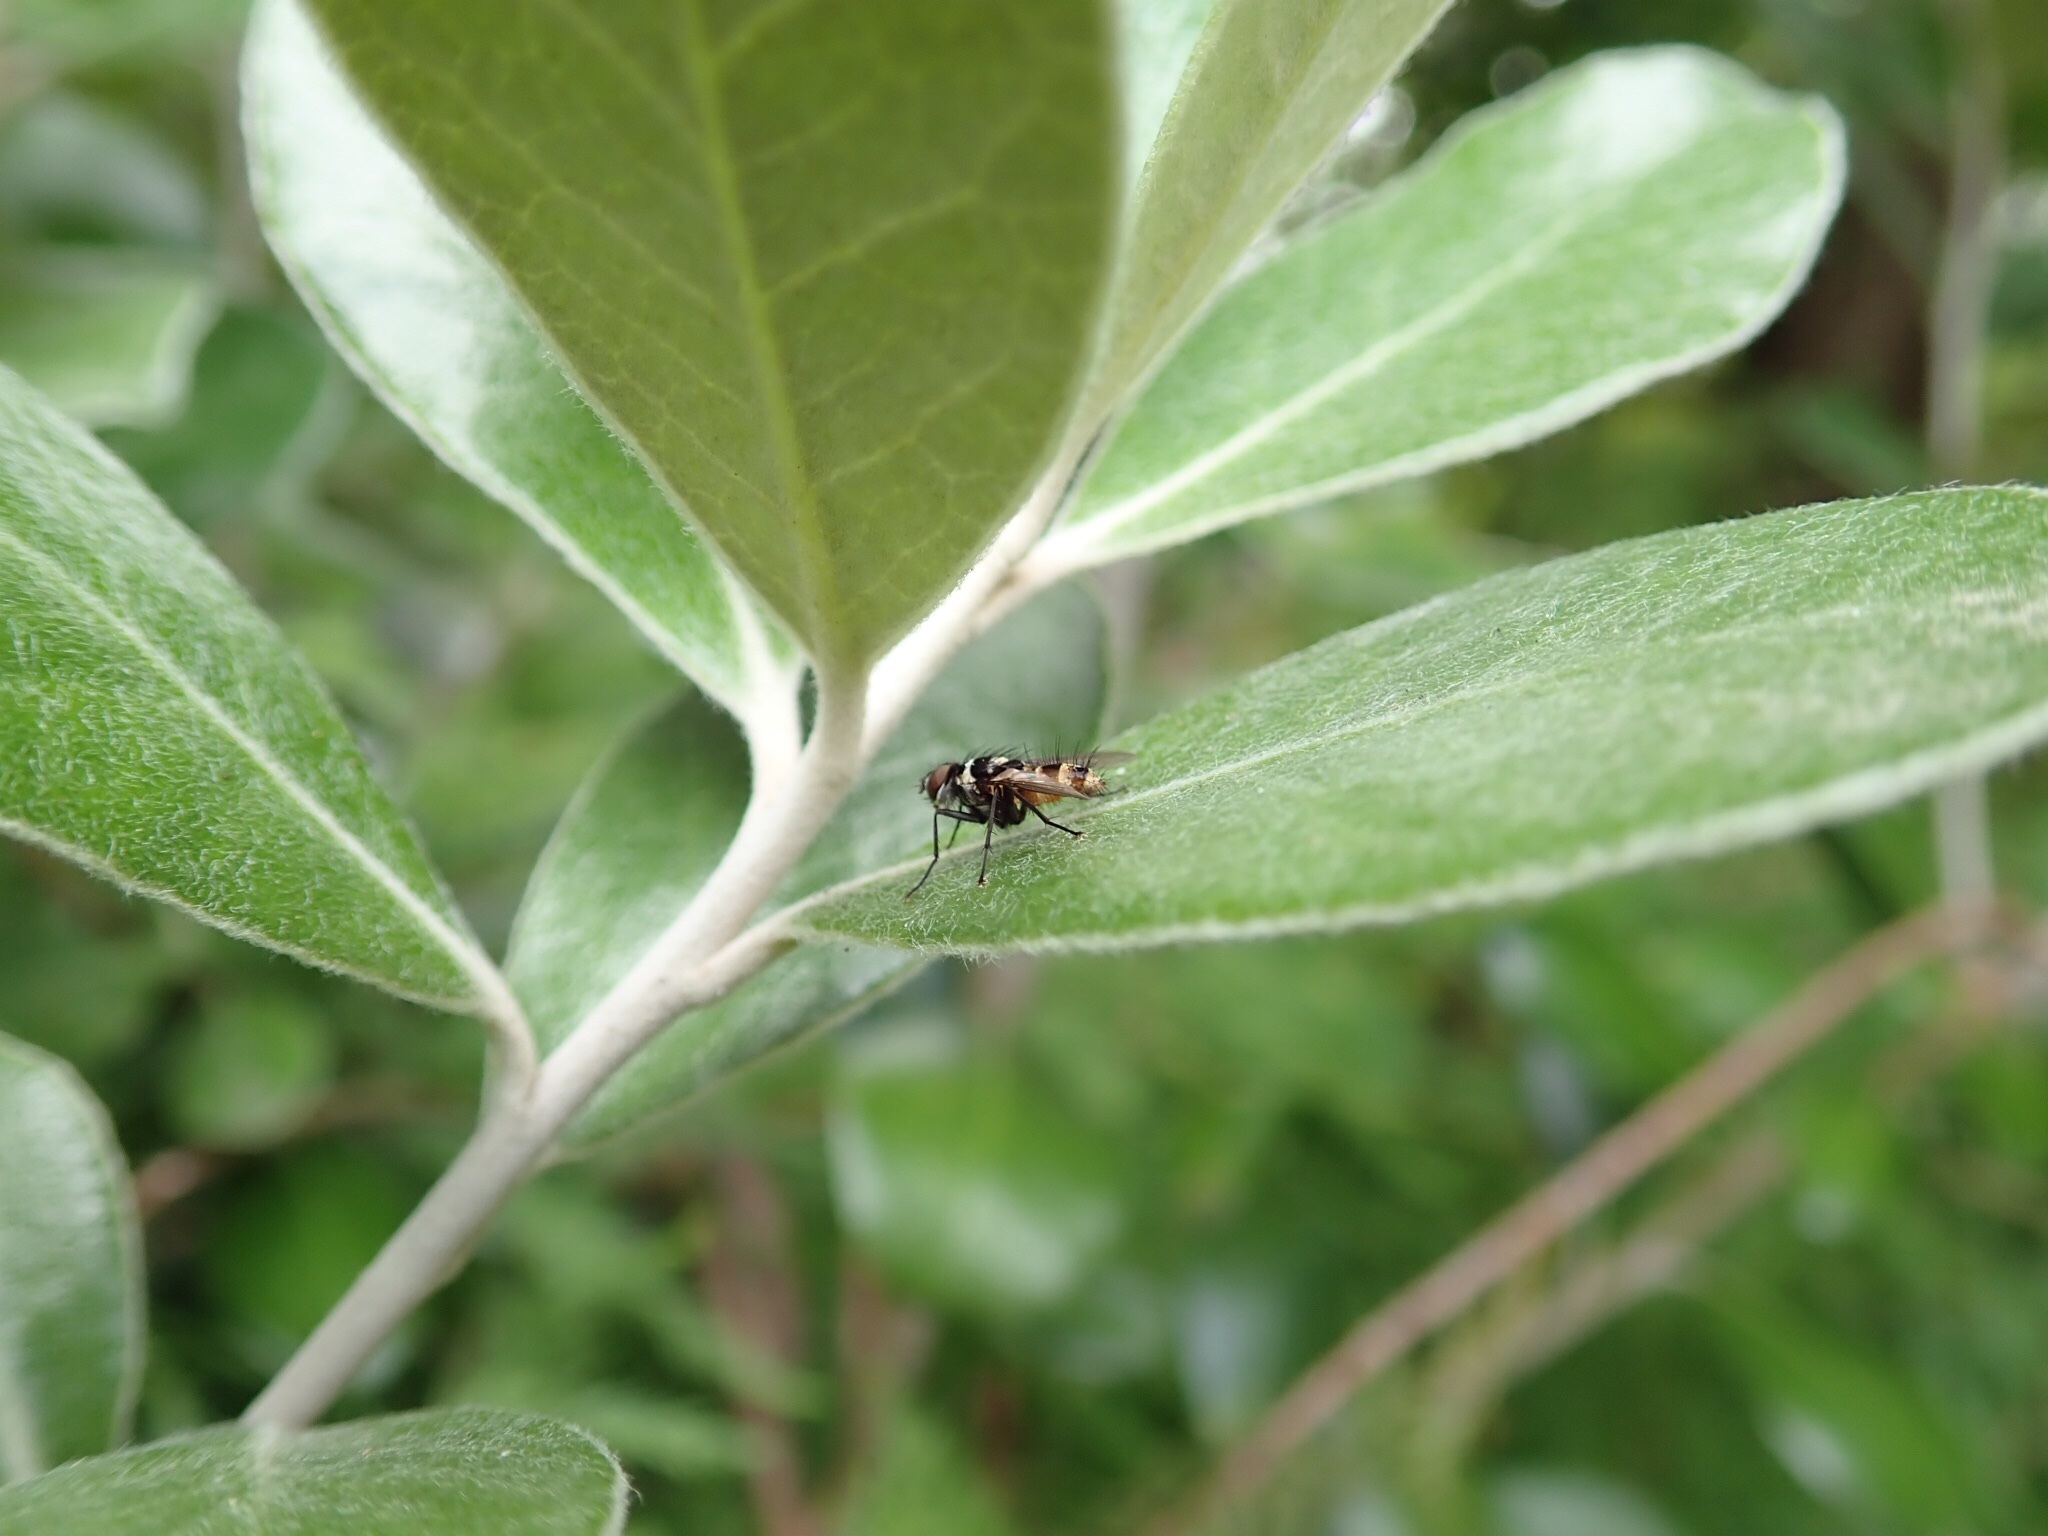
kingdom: Animalia
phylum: Arthropoda
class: Insecta
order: Diptera
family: Tachinidae
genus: Trigonospila
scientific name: Trigonospila brevifacies
